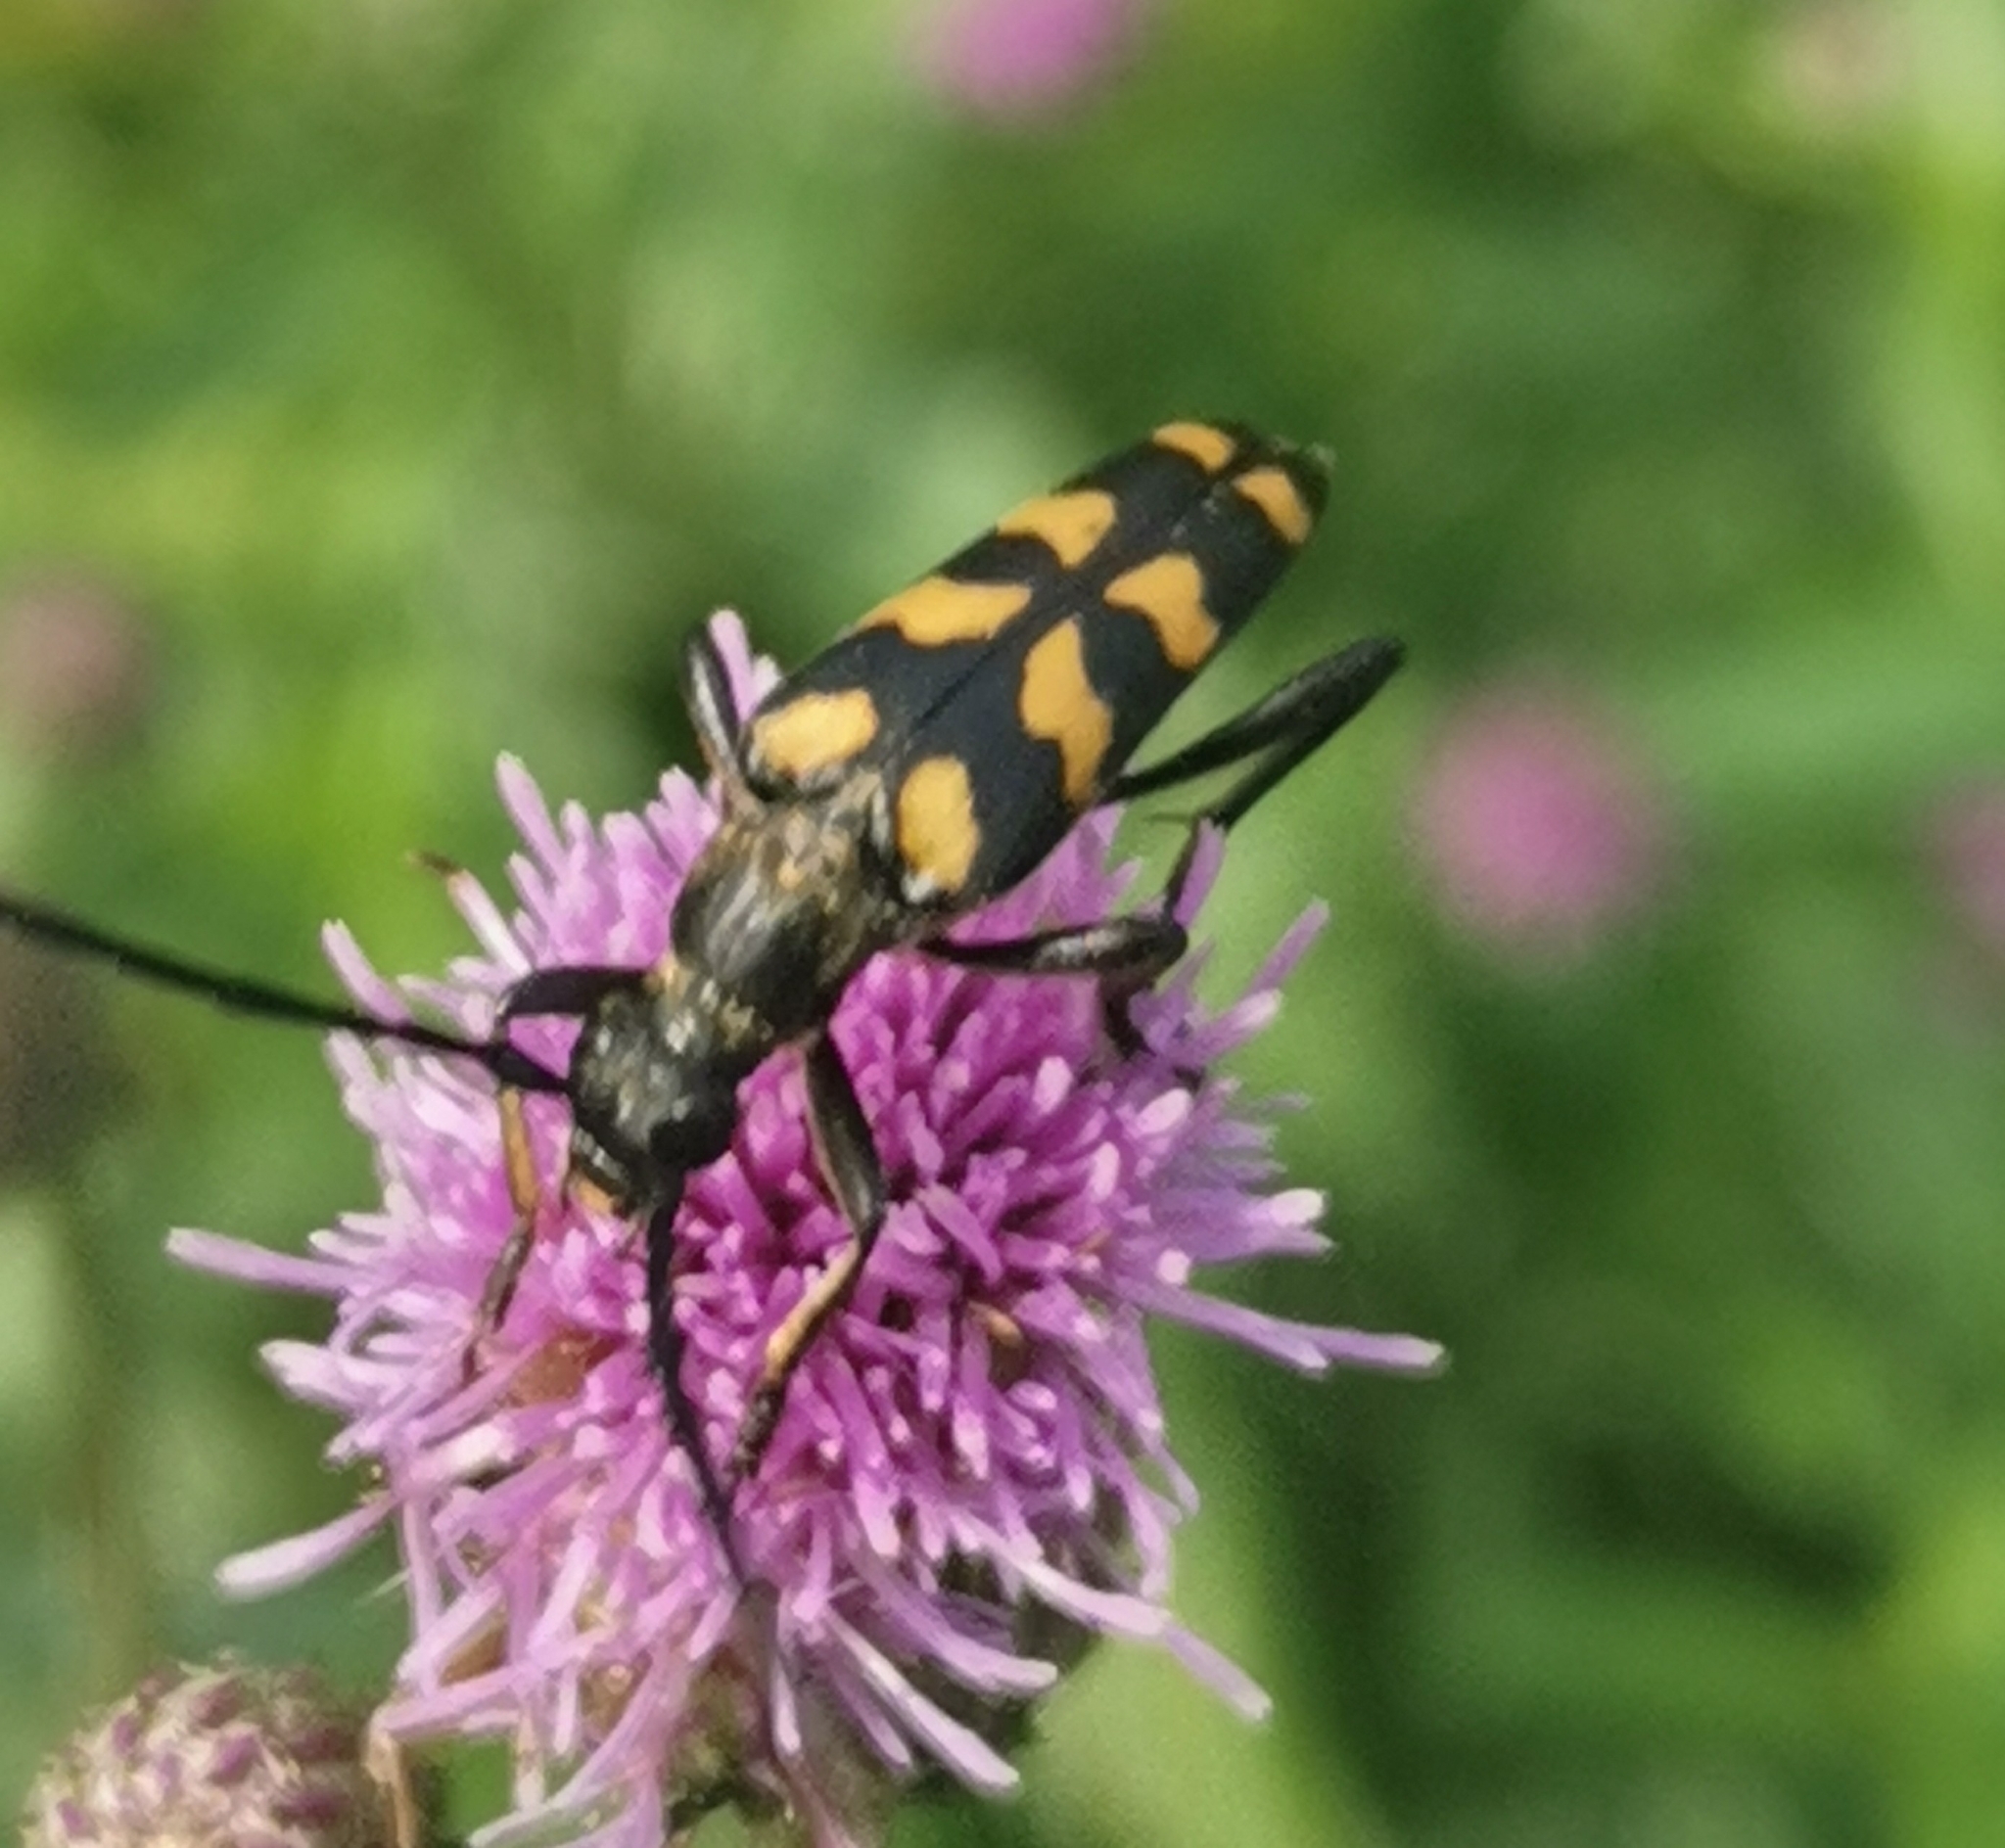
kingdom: Animalia
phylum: Arthropoda
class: Insecta
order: Coleoptera
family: Cerambycidae
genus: Leptura
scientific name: Leptura quadrifasciata
